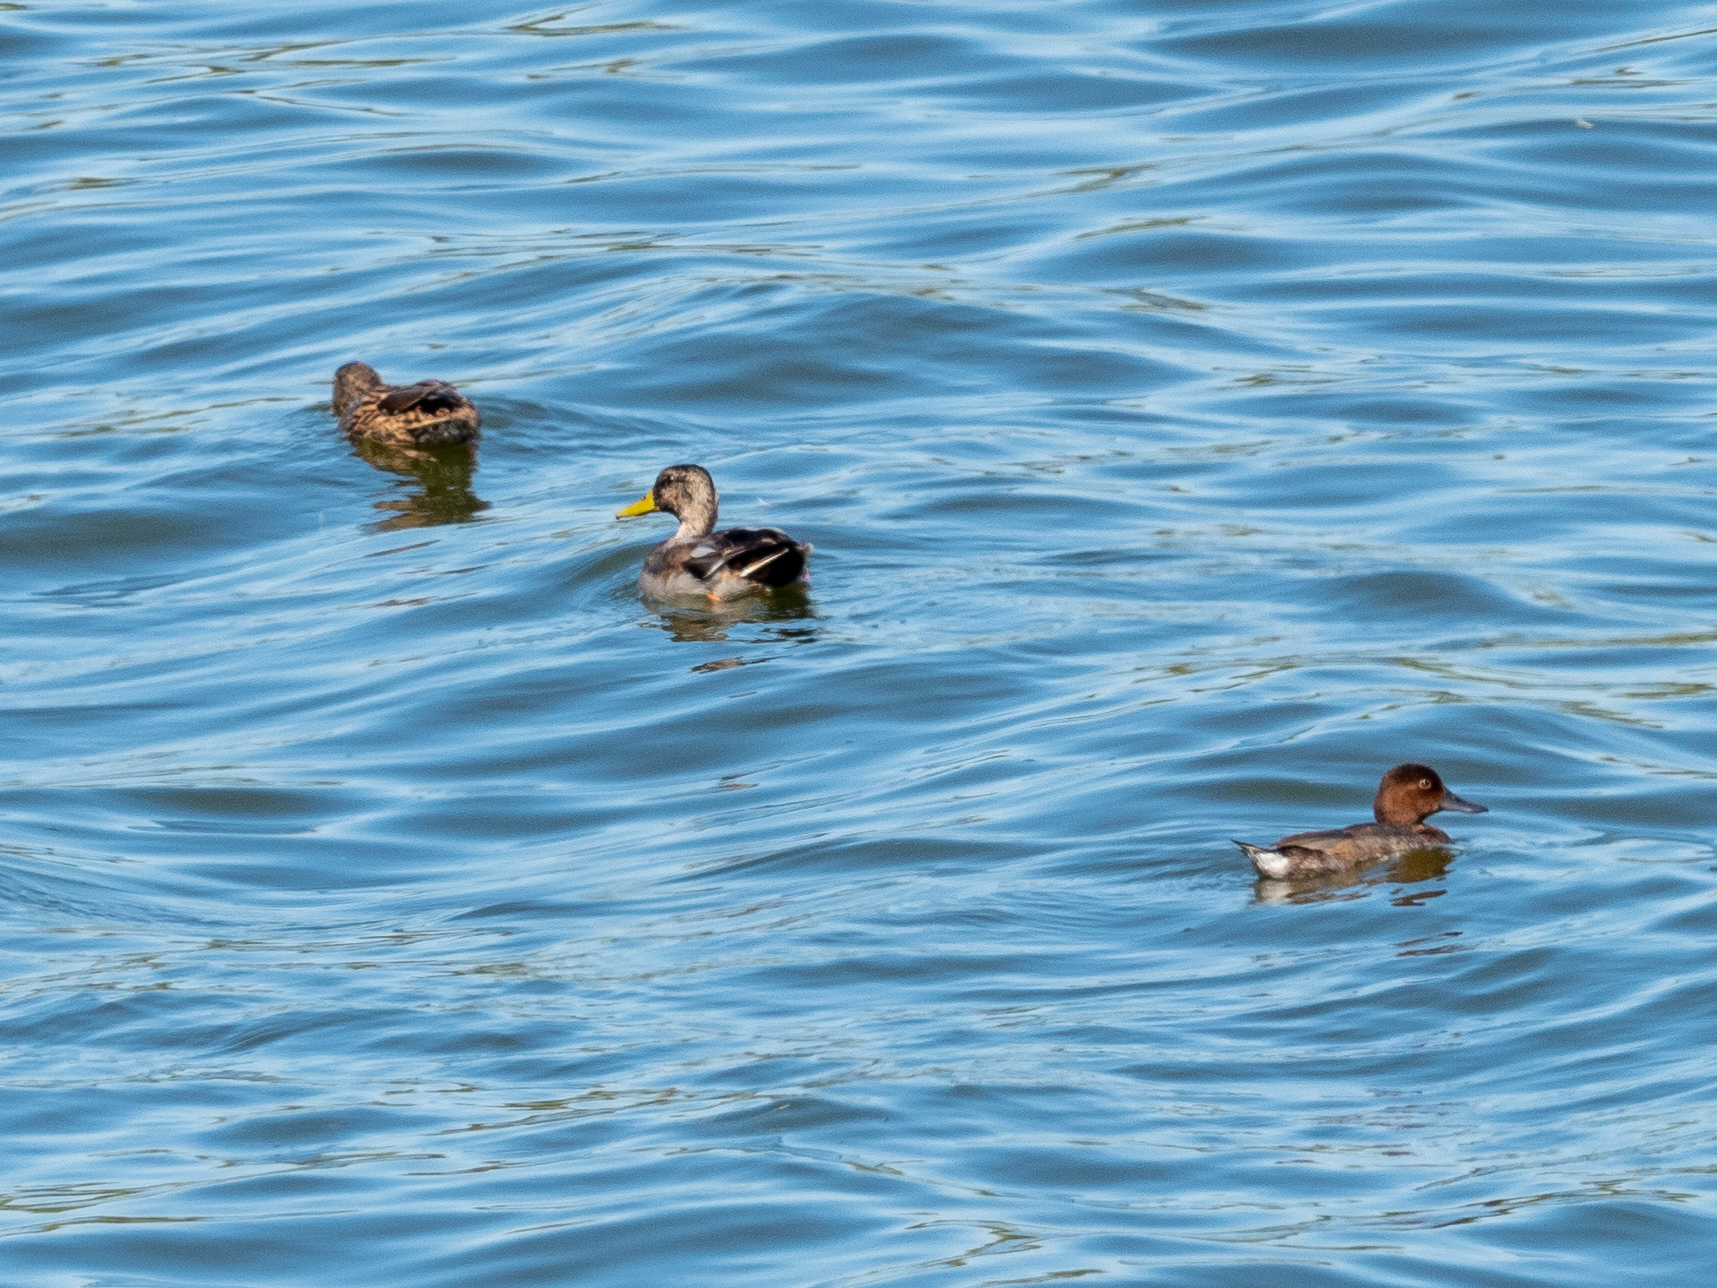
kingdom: Animalia
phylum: Chordata
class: Aves
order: Anseriformes
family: Anatidae
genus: Aythya
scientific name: Aythya nyroca
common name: Ferruginous duck
